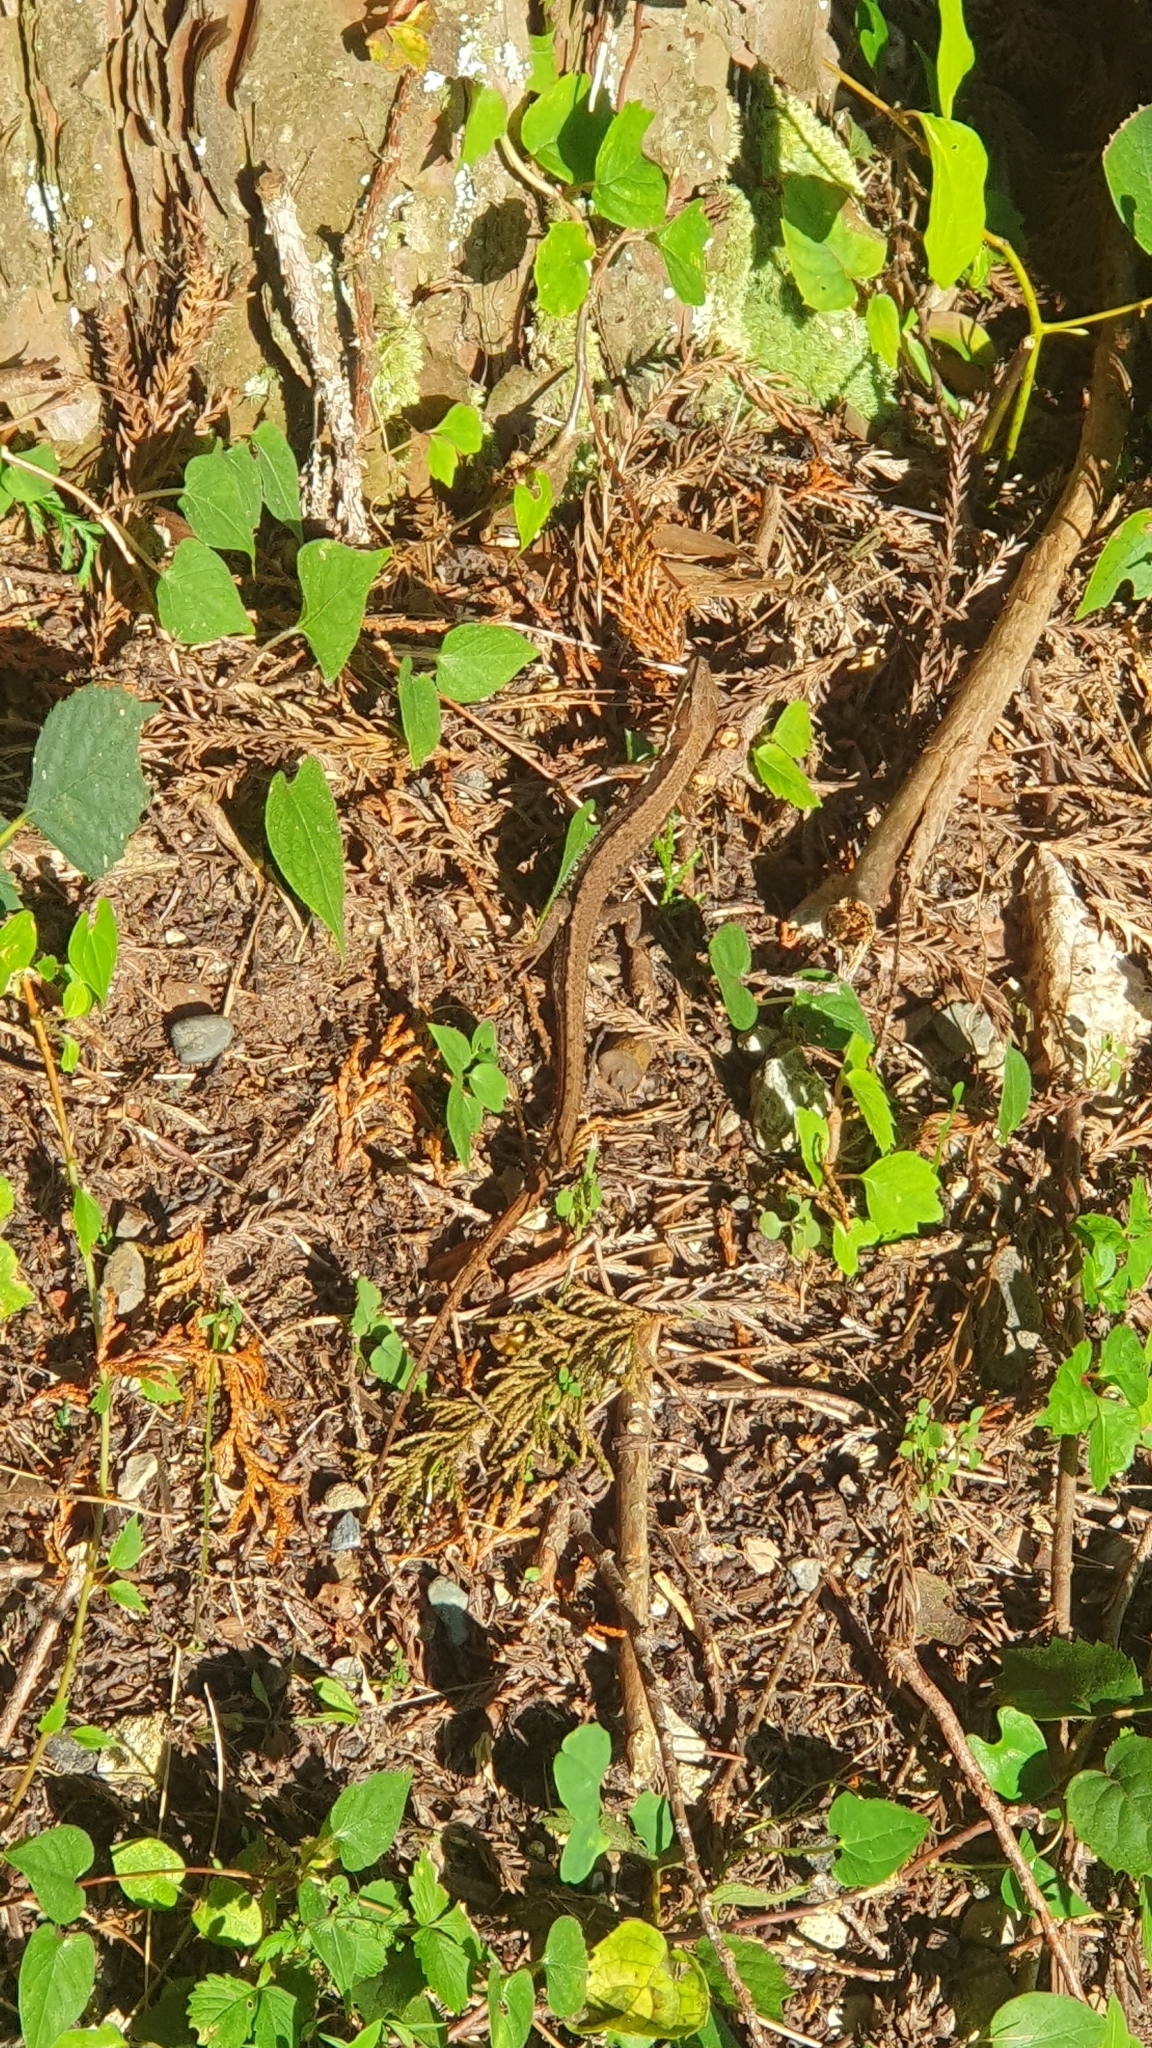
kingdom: Animalia
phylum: Chordata
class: Squamata
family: Lacertidae
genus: Takydromus
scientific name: Takydromus tachydromoides
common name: Japanese grass lizard
